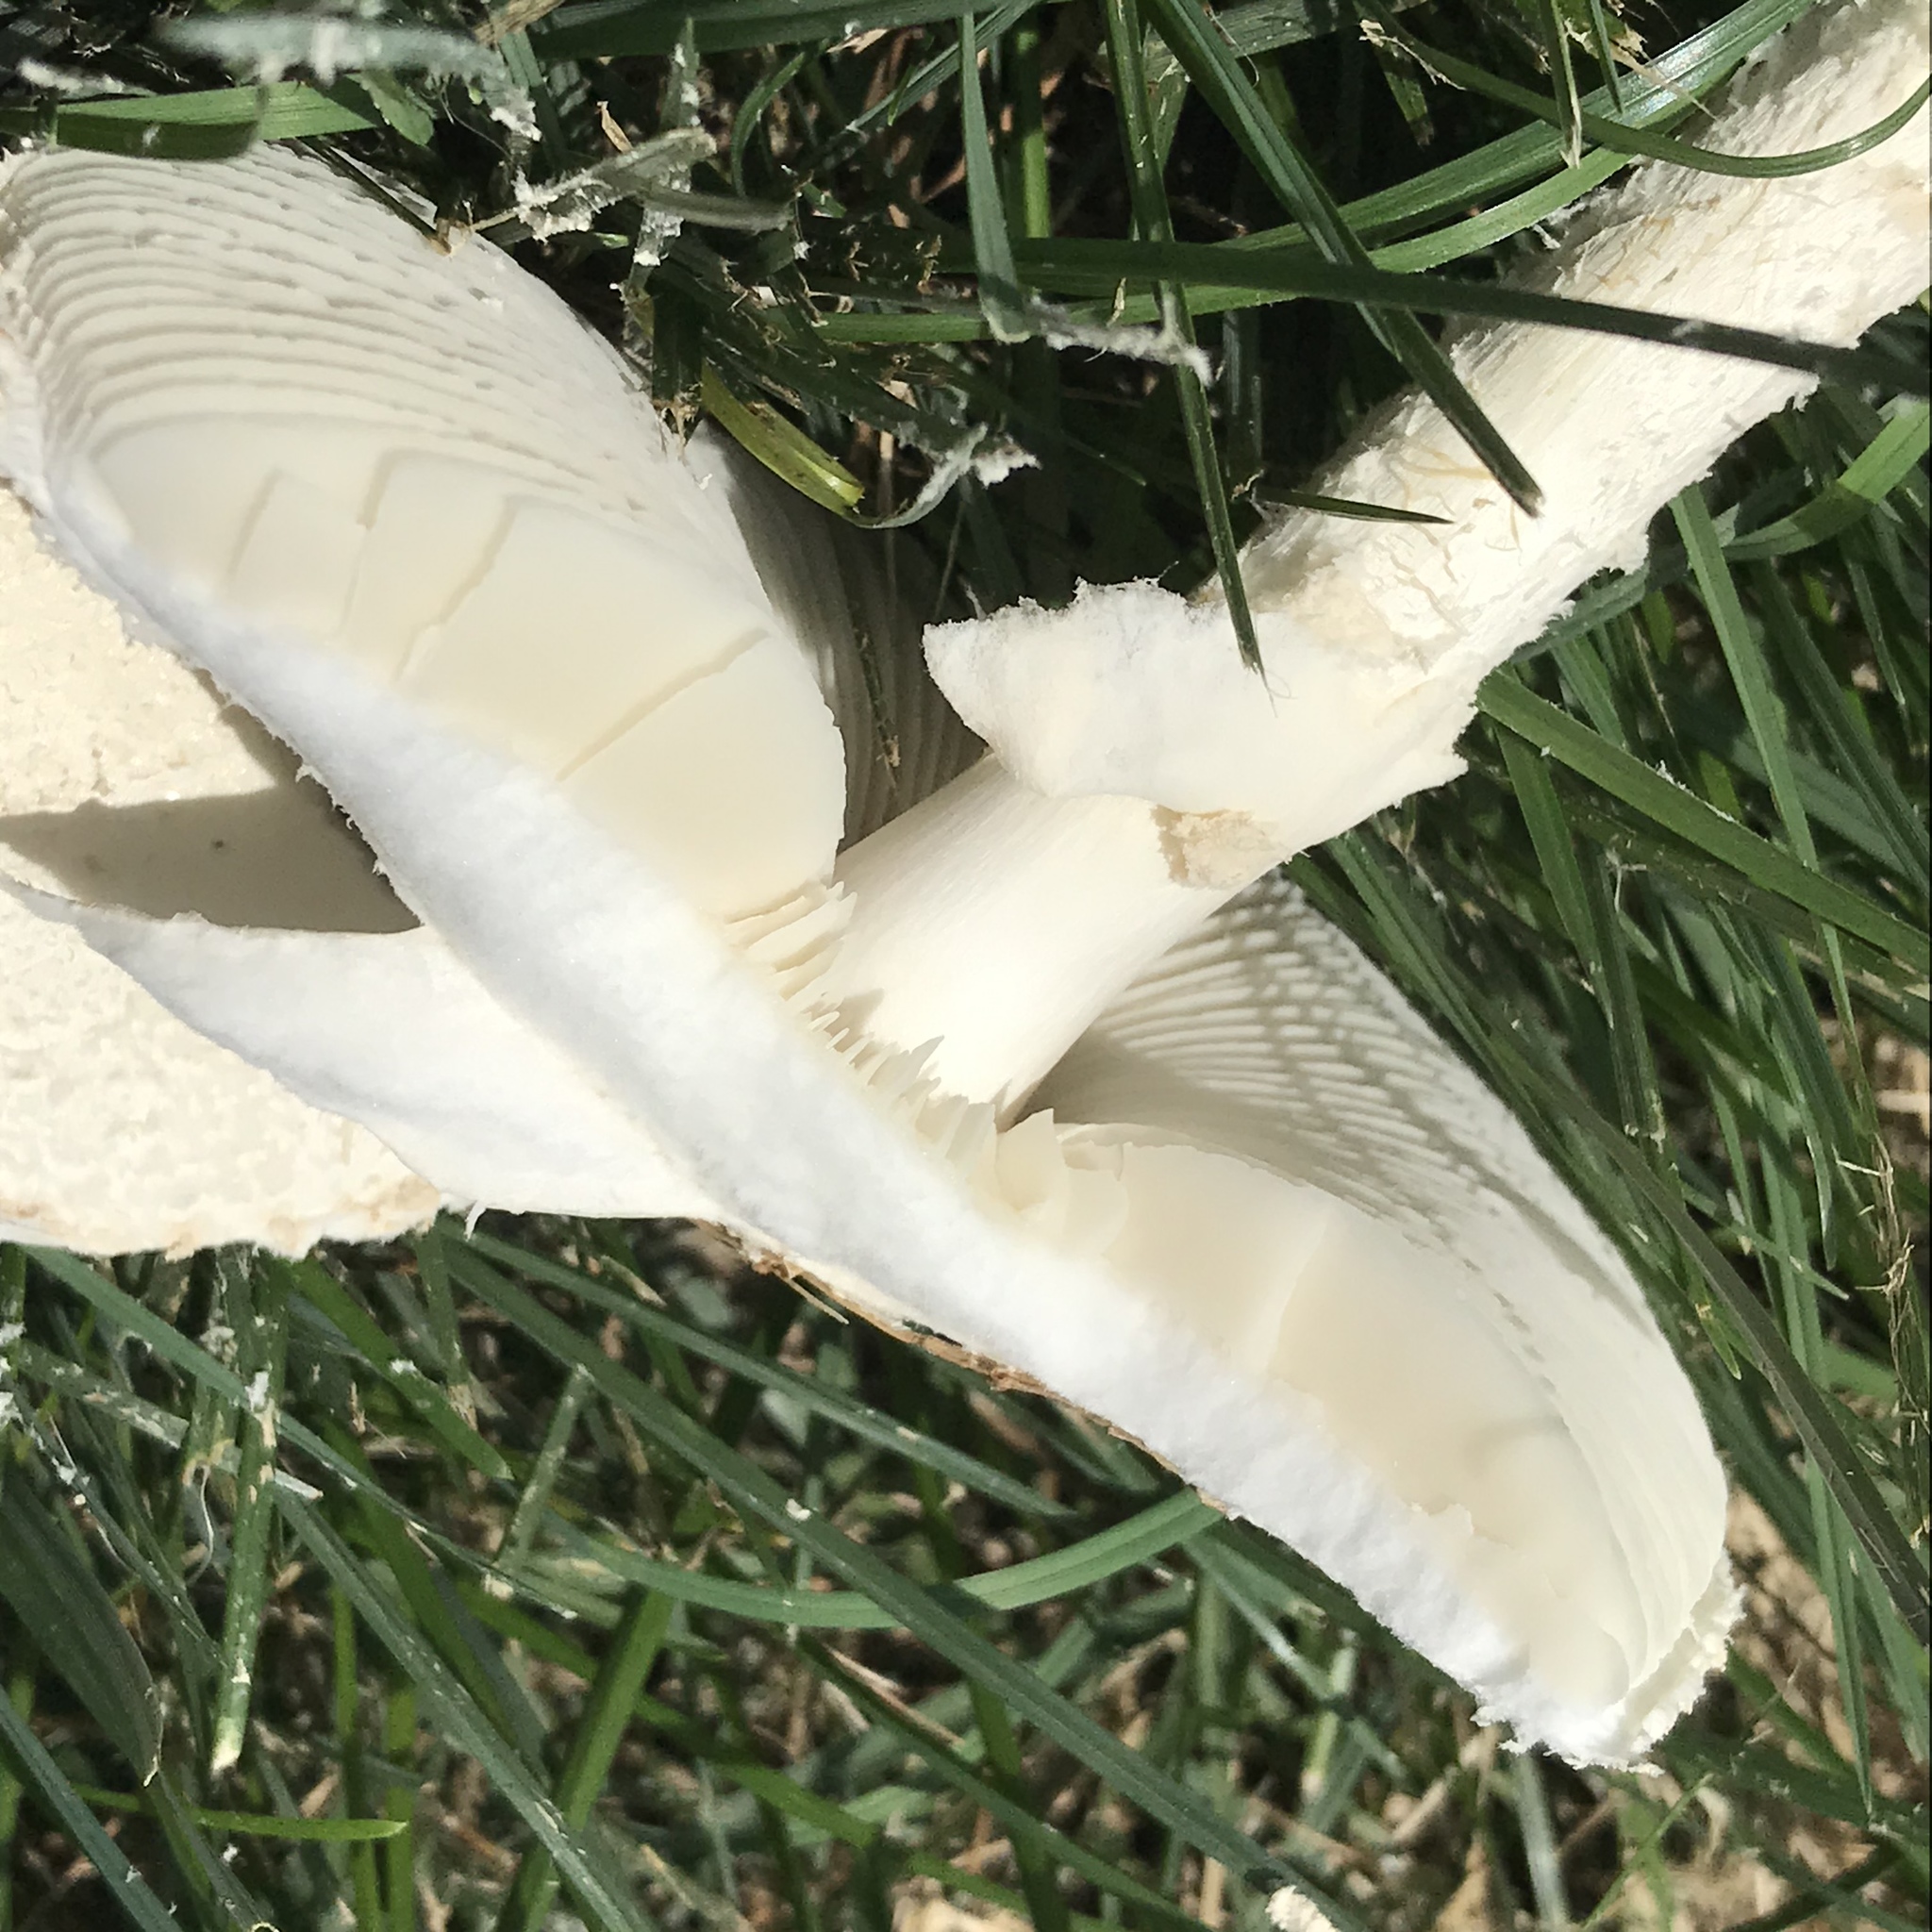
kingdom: Fungi
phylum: Basidiomycota
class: Agaricomycetes
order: Agaricales
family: Amanitaceae
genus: Amanita
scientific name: Amanita thiersii
